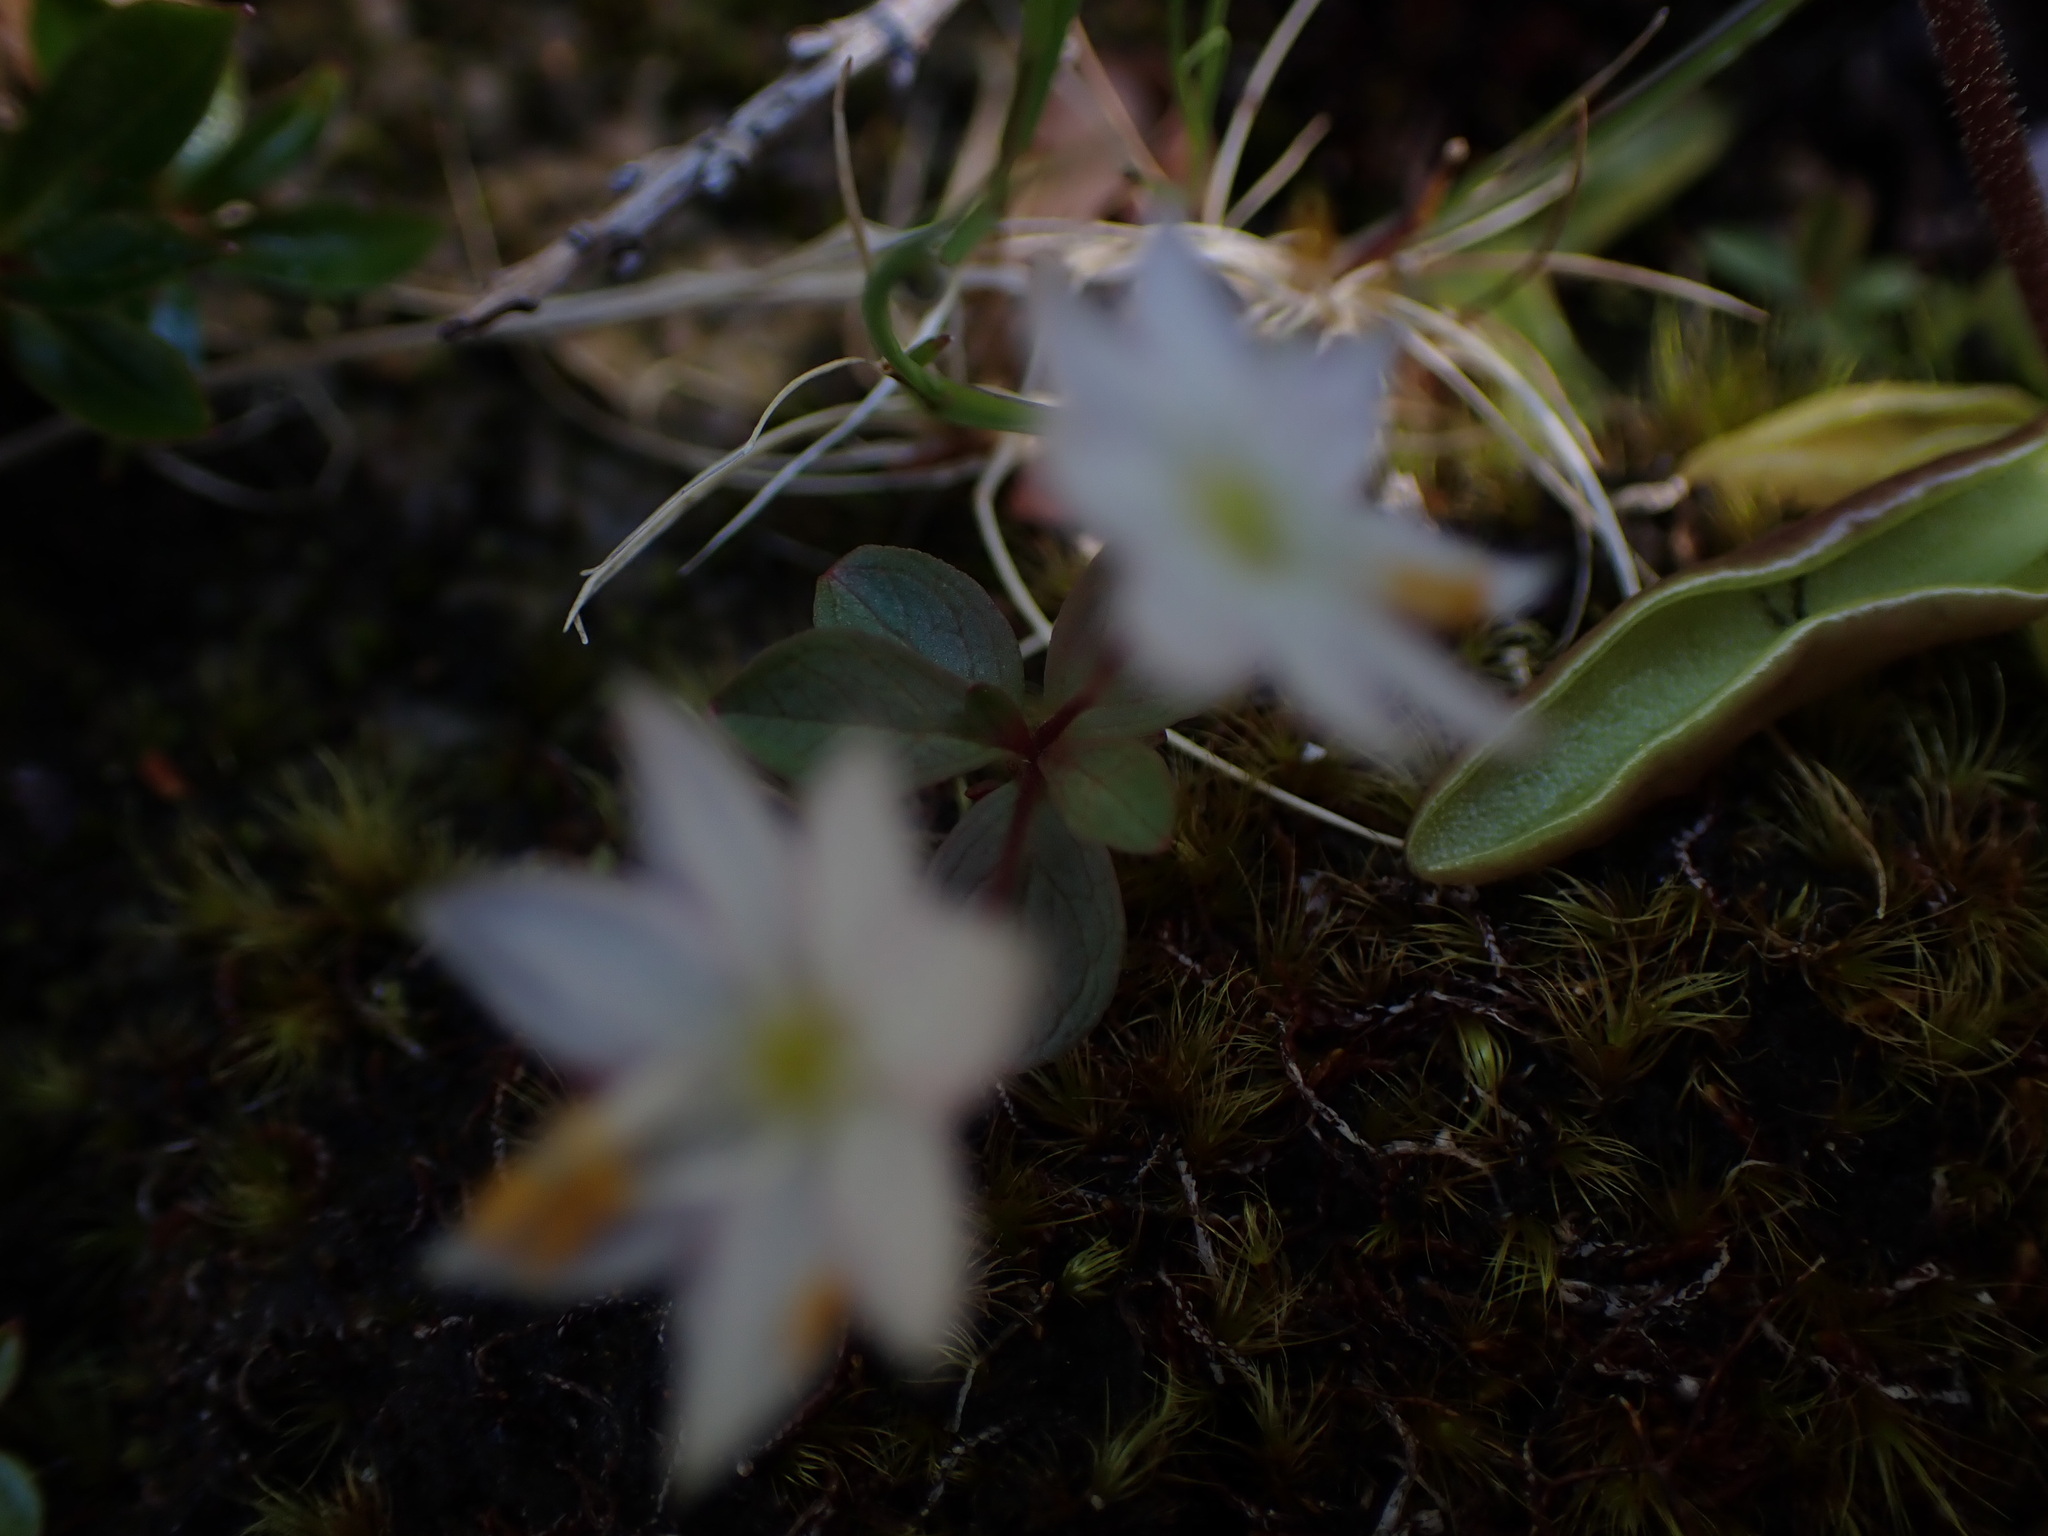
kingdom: Plantae
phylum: Tracheophyta
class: Magnoliopsida
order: Ericales
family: Primulaceae
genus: Lysimachia
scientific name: Lysimachia europaea
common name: Arctic starflower
